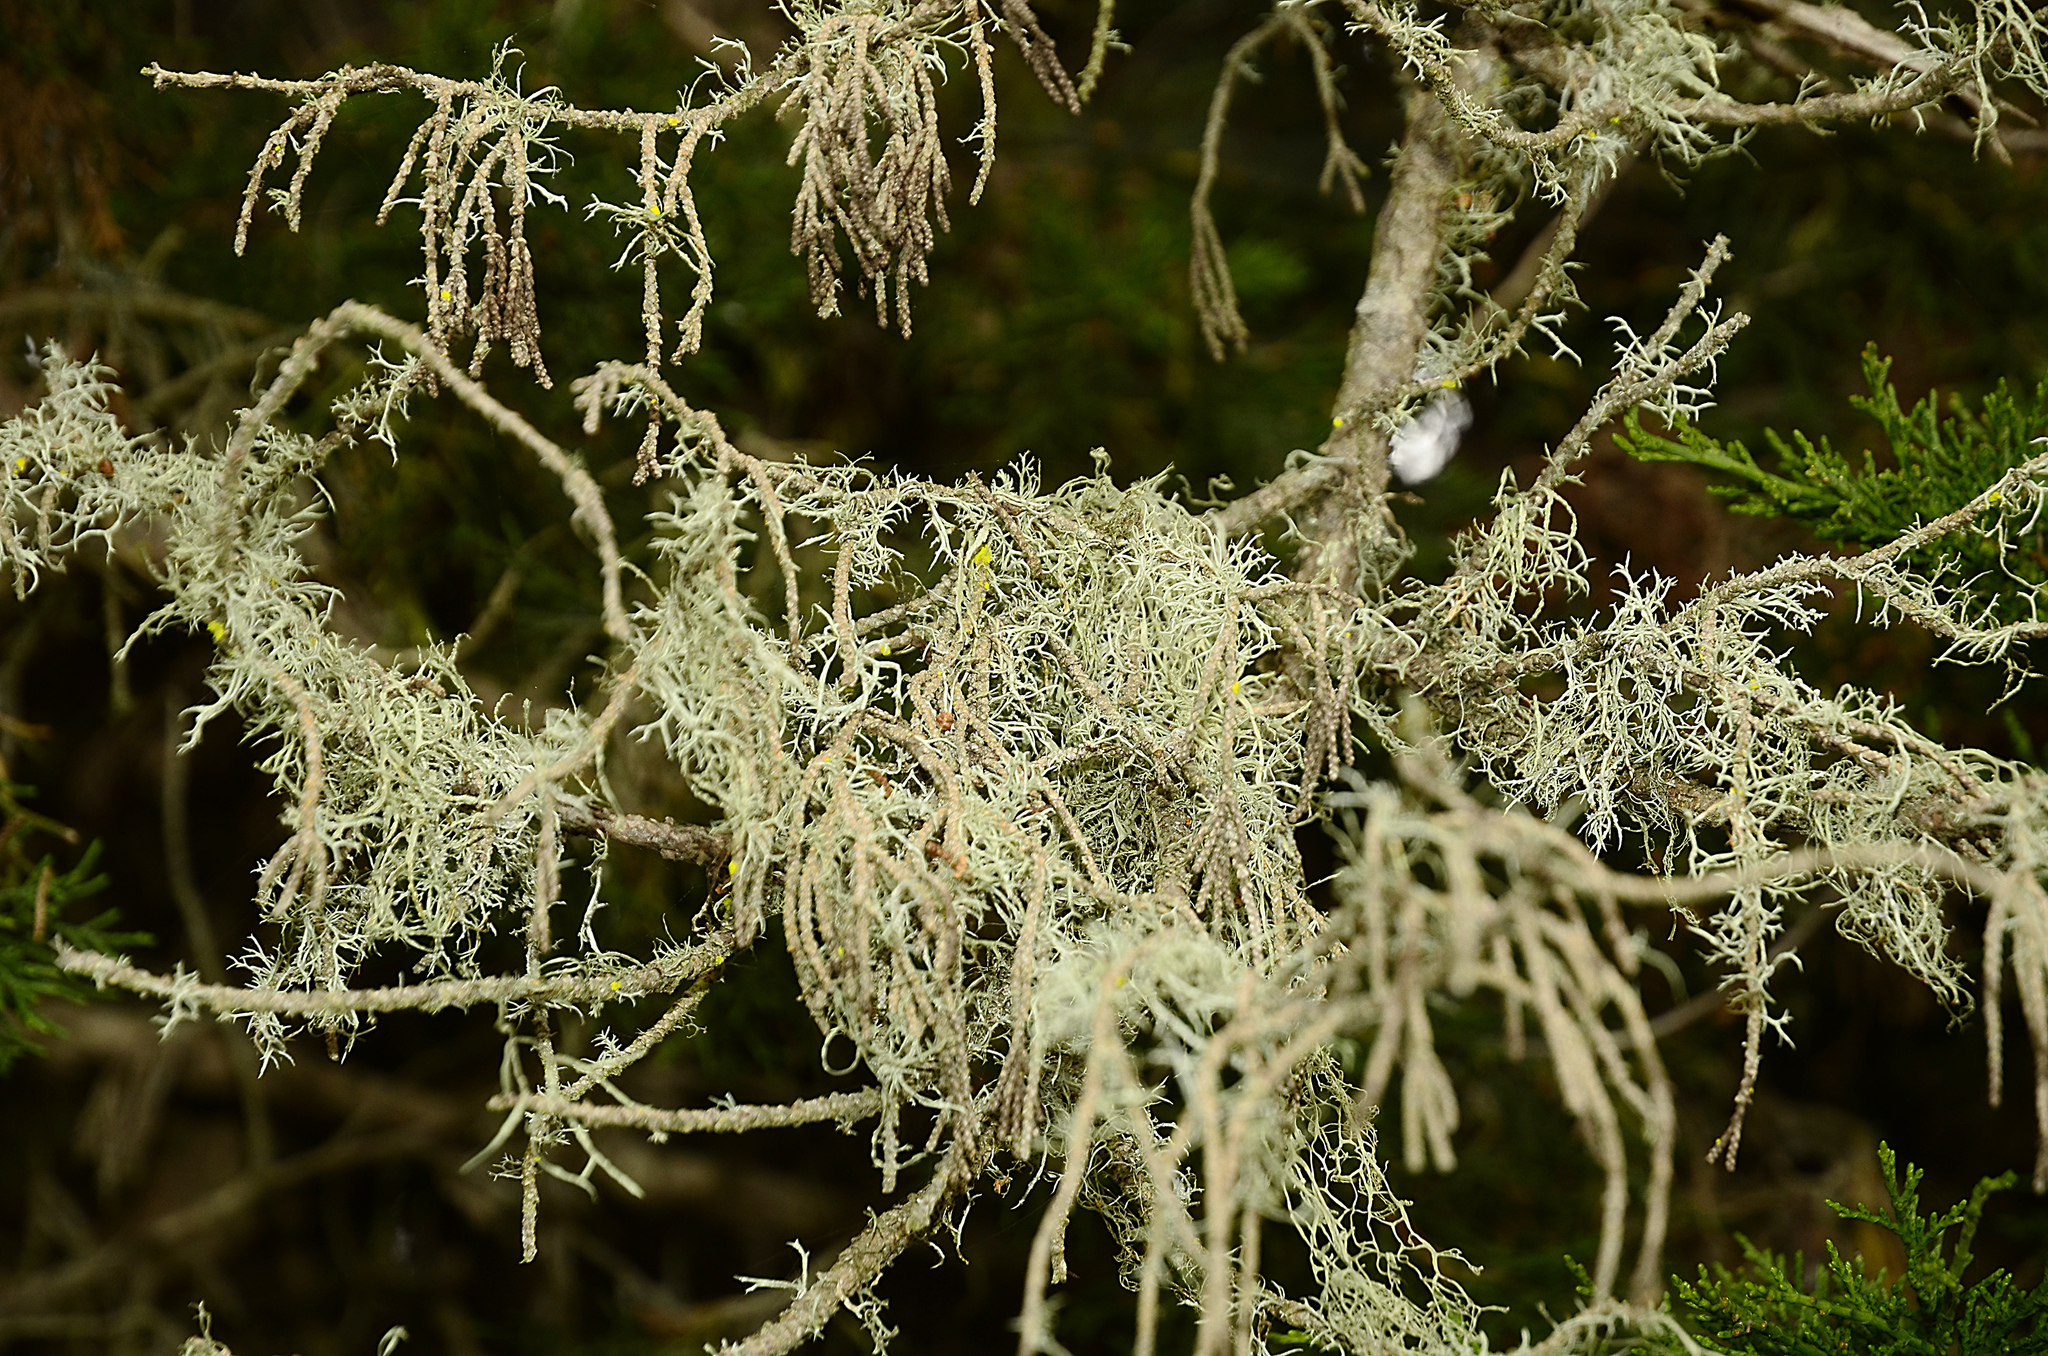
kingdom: Fungi
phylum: Ascomycota
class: Lecanoromycetes
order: Lecanorales
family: Ramalinaceae
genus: Ramalina
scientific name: Ramalina menziesii
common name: Lace lichen
